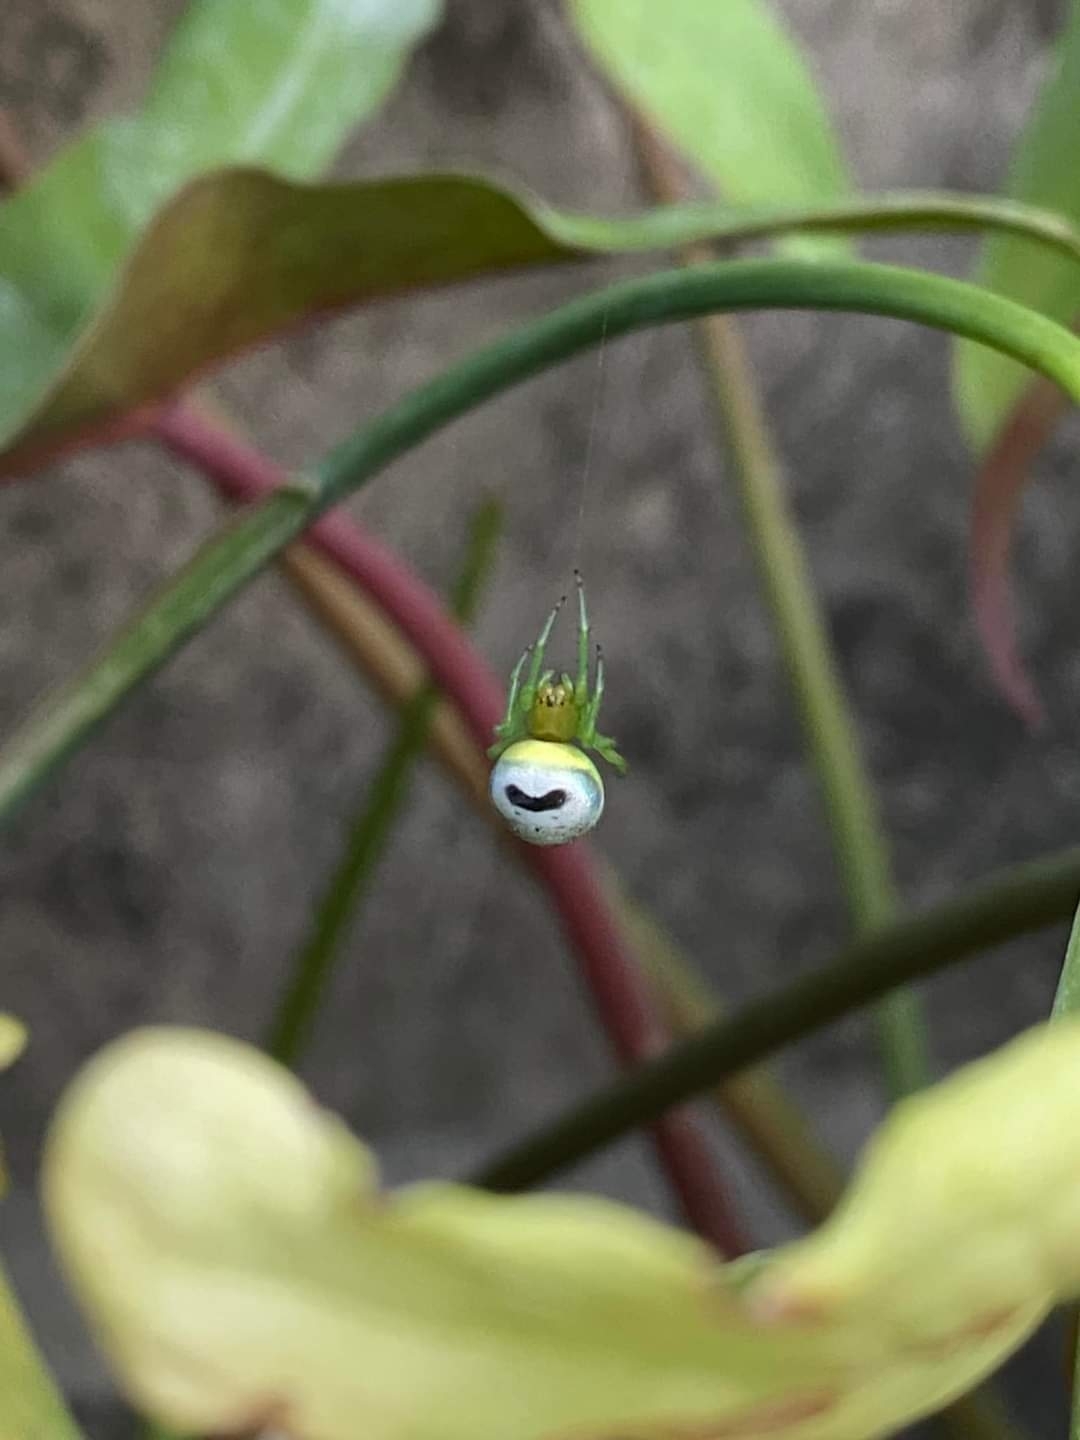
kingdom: Animalia
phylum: Arthropoda
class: Arachnida
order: Araneae
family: Araneidae
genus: Bijoaraneus
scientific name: Bijoaraneus mitificus
